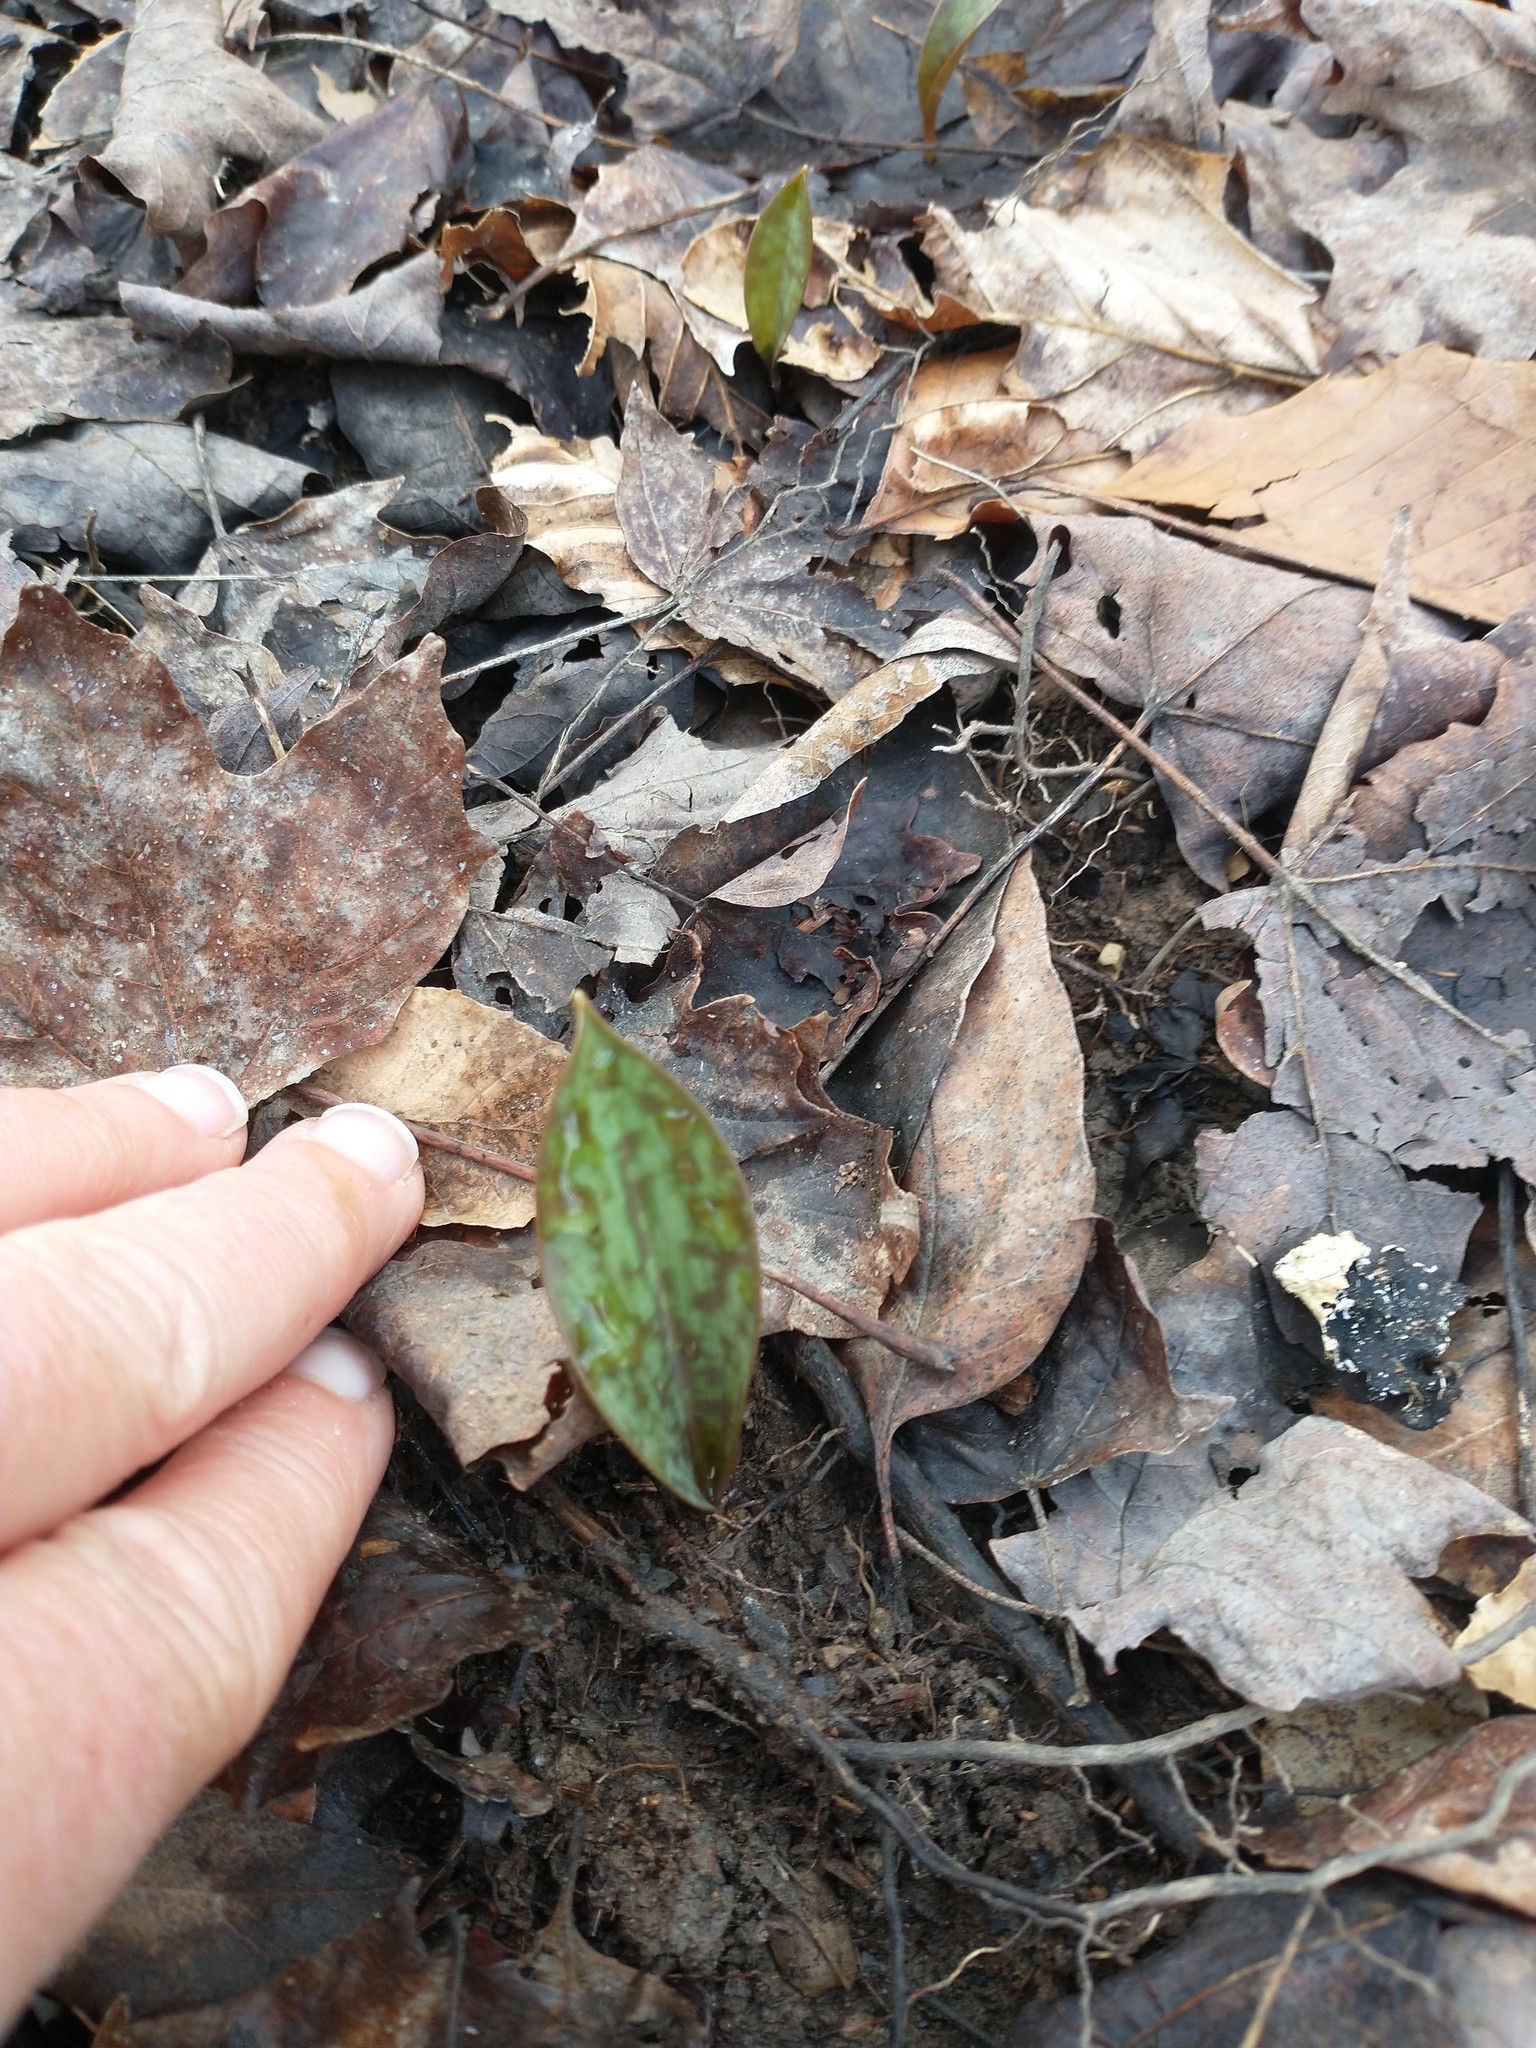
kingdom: Plantae
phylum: Tracheophyta
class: Liliopsida
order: Liliales
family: Liliaceae
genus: Erythronium
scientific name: Erythronium americanum
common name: Yellow adder's-tongue
